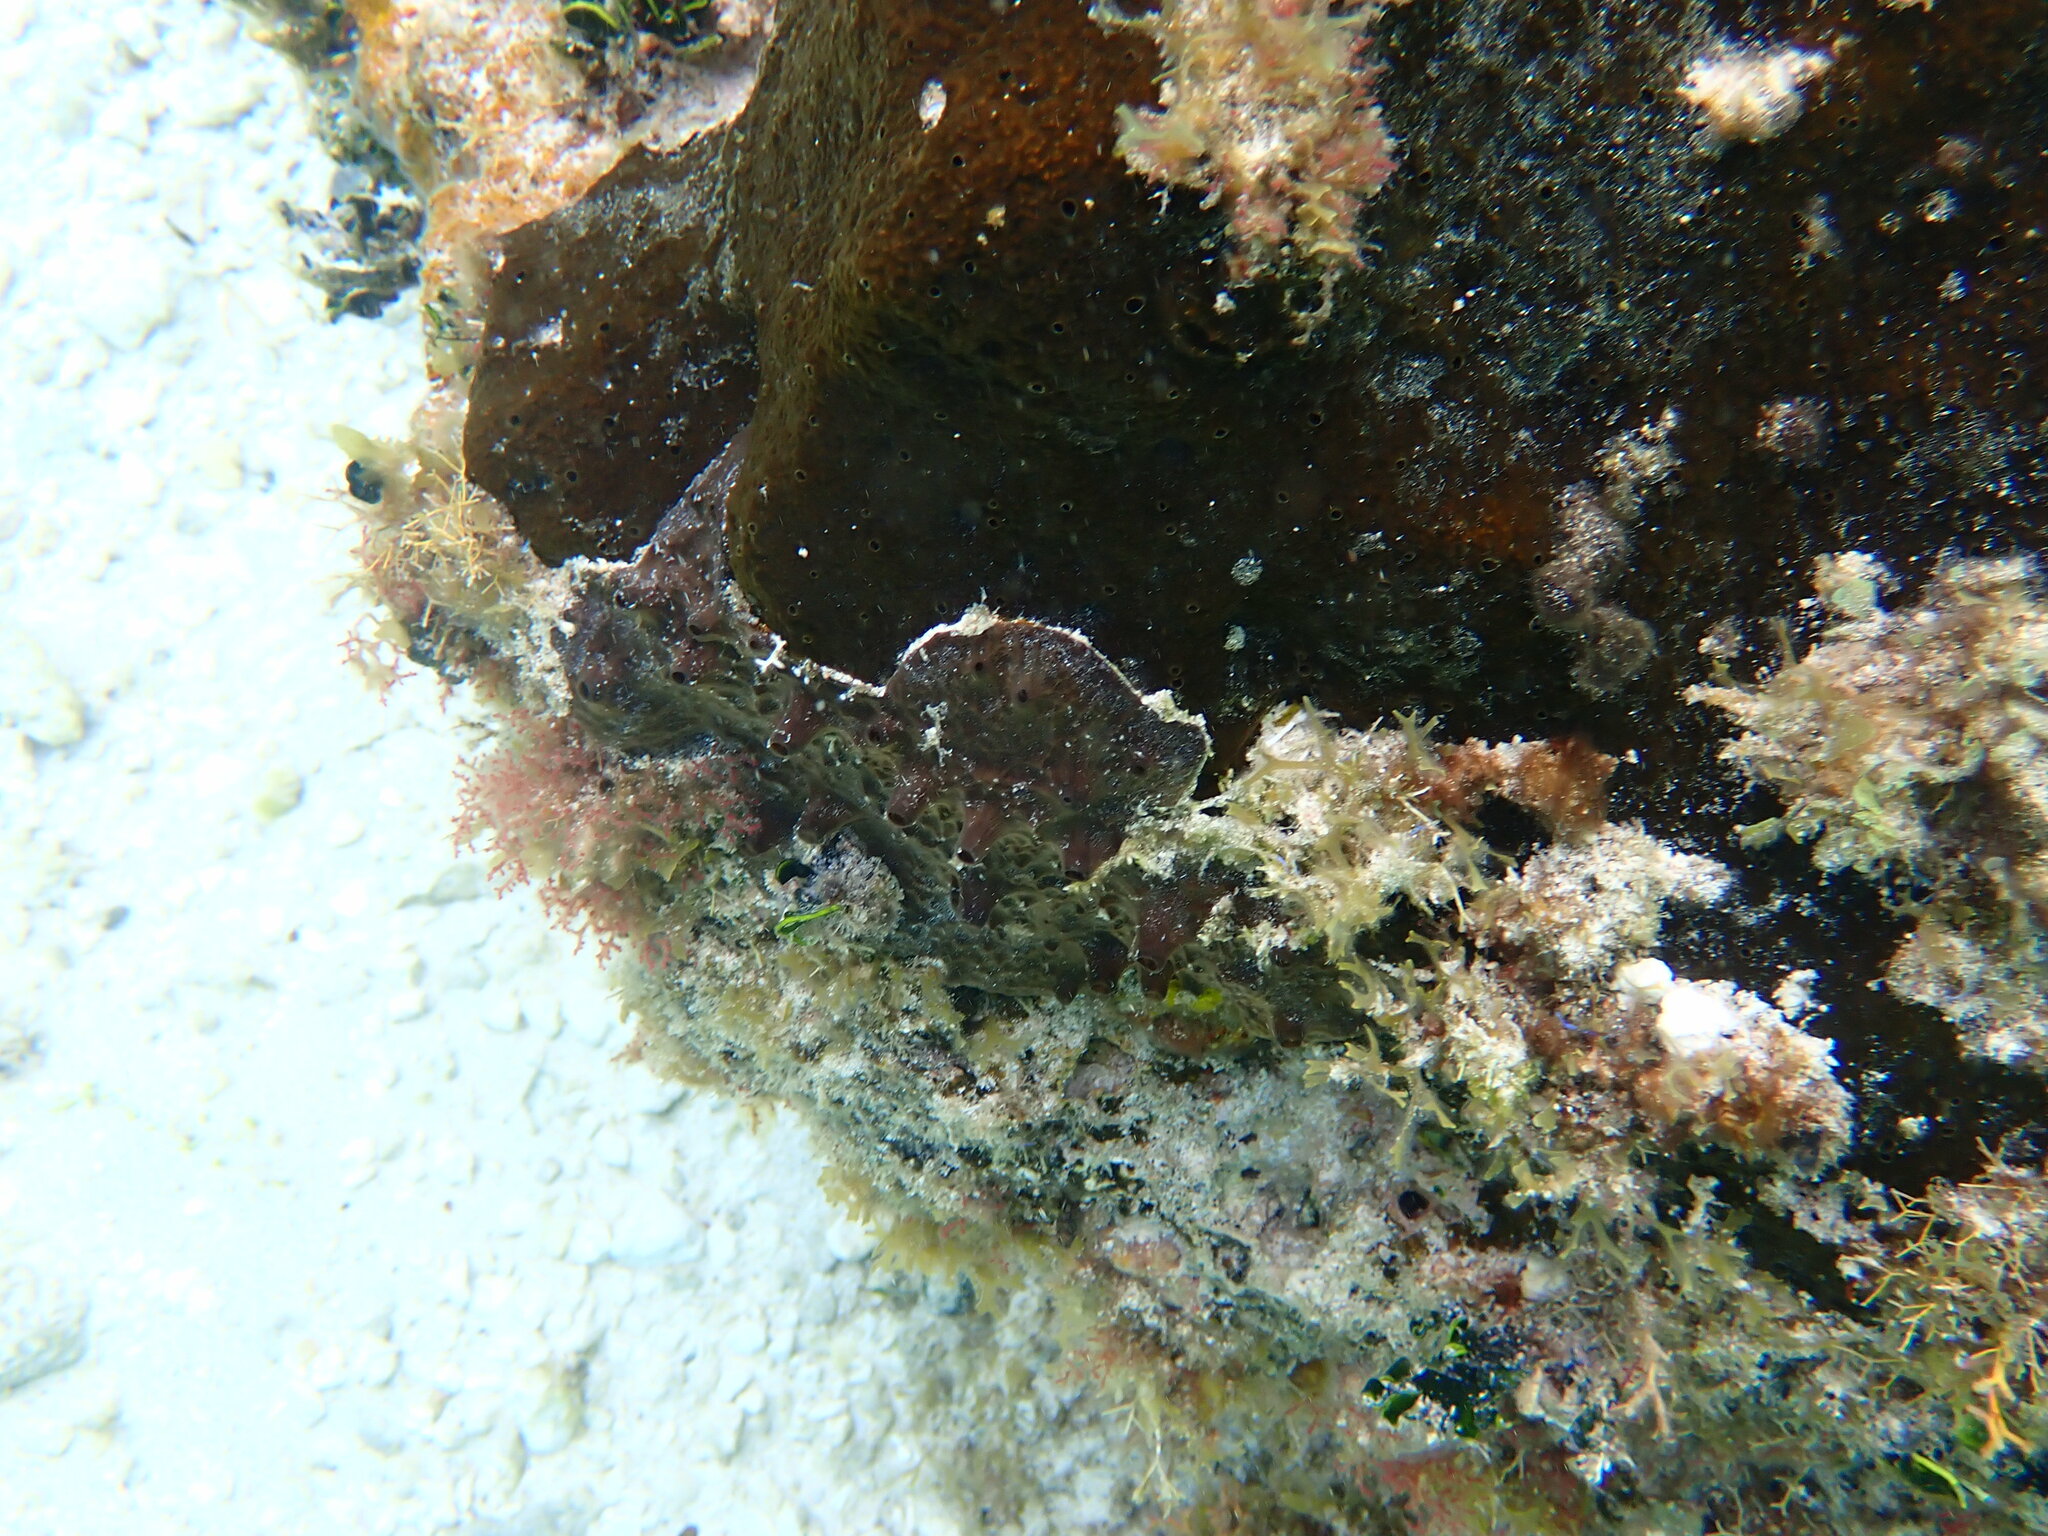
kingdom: Animalia
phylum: Porifera
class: Demospongiae
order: Clionaida
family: Clionaidae
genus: Cliona
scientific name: Cliona caribbaea
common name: Green boring sponge
